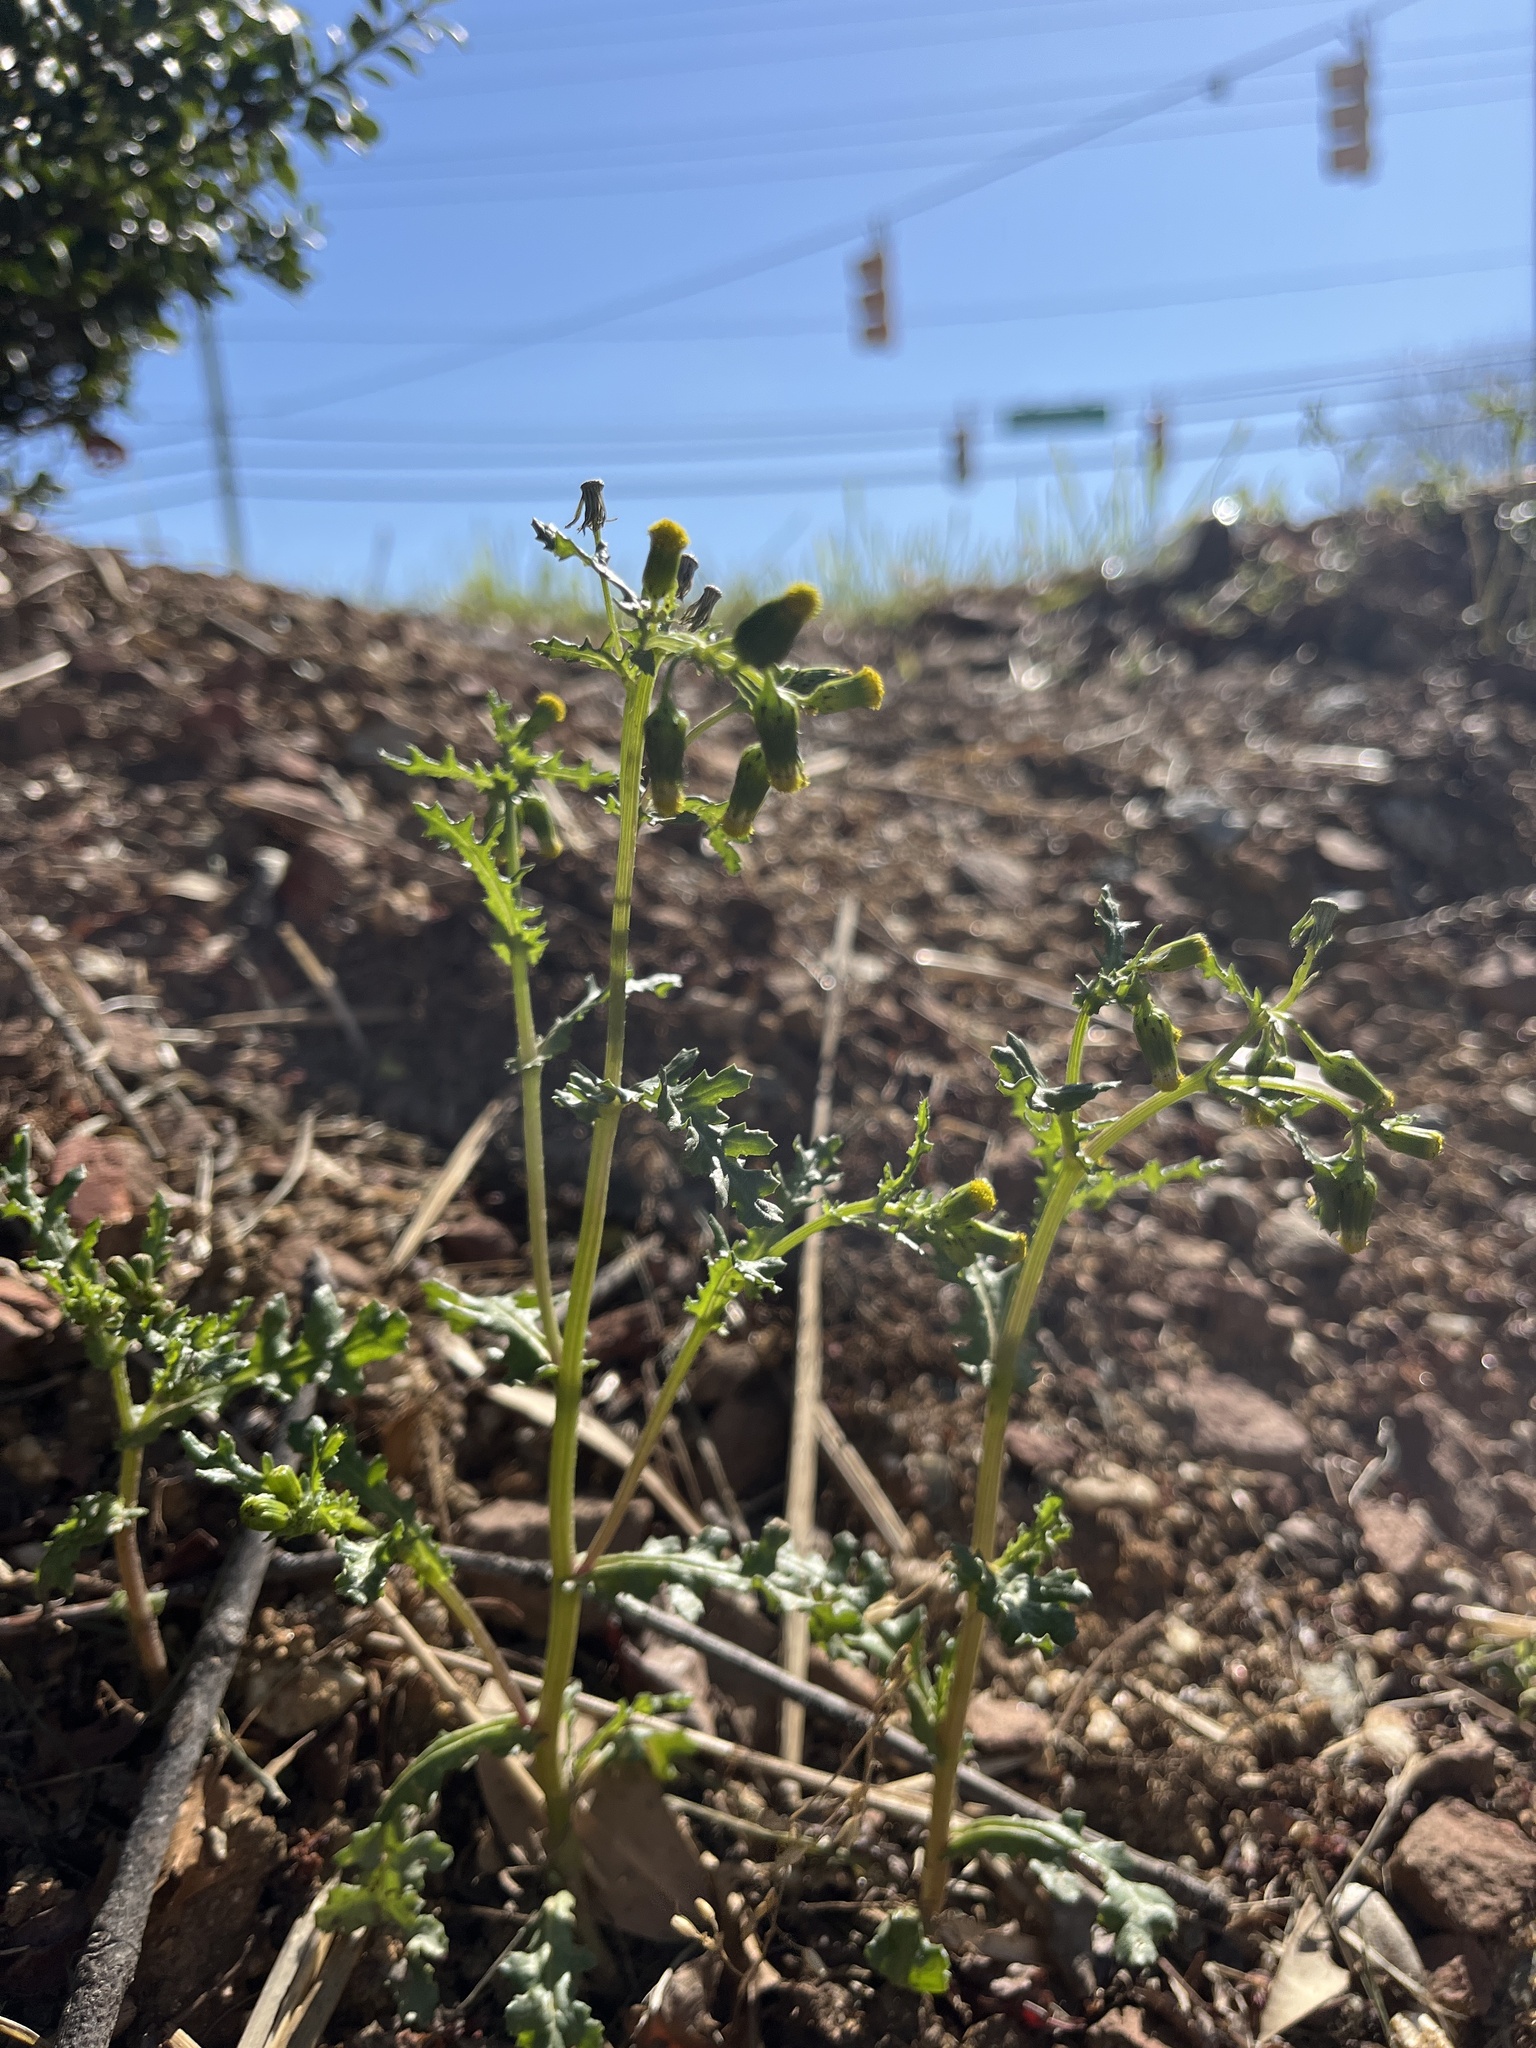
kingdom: Plantae
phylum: Tracheophyta
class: Magnoliopsida
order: Asterales
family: Asteraceae
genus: Senecio
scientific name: Senecio vulgaris
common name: Old-man-in-the-spring
